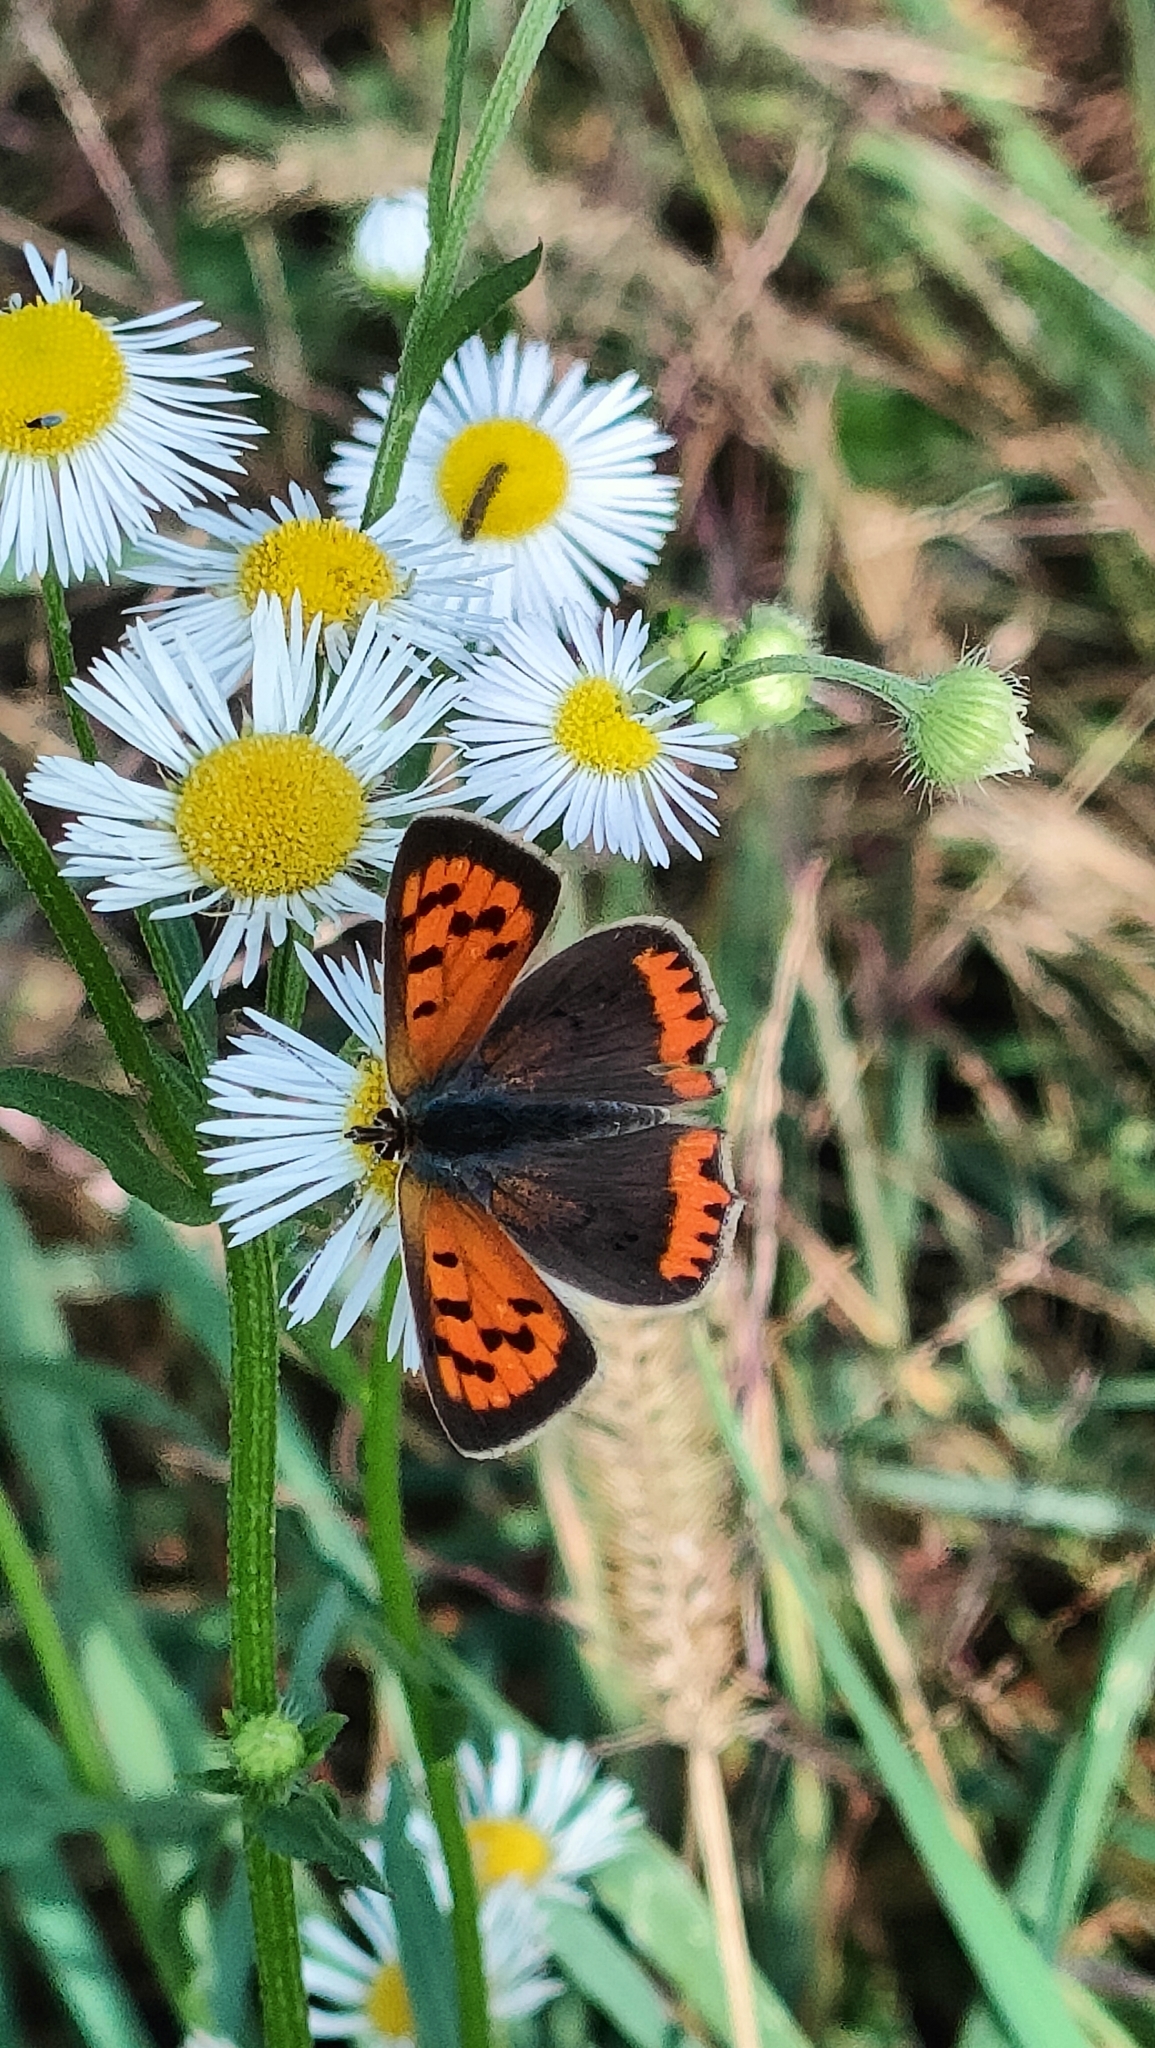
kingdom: Animalia
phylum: Arthropoda
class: Insecta
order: Lepidoptera
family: Lycaenidae
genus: Lycaena
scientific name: Lycaena phlaeas
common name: Small copper
